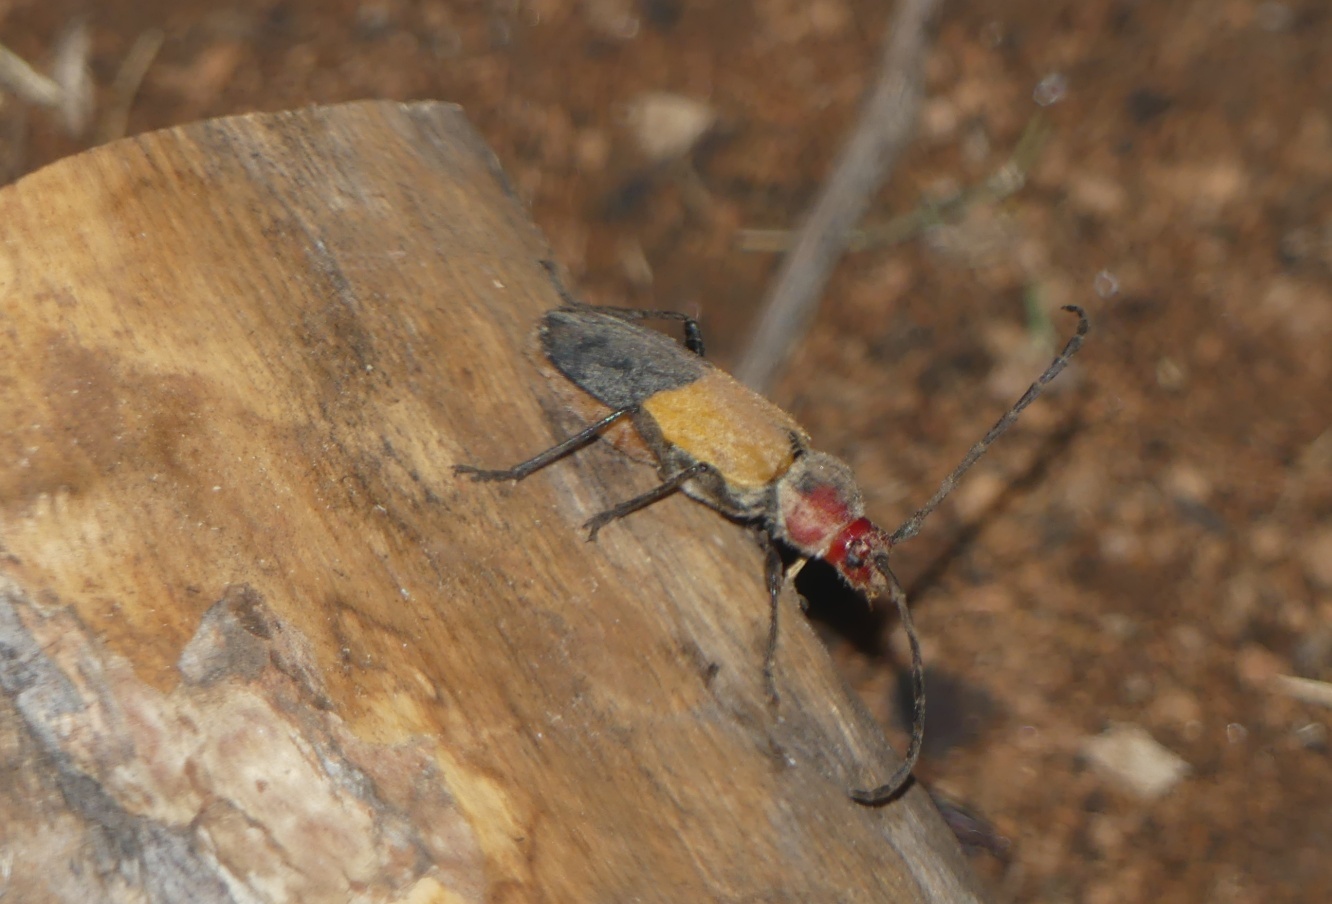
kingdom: Animalia
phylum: Arthropoda
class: Insecta
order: Coleoptera
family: Cerambycidae
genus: Purpuricenus
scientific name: Purpuricenus laetus
